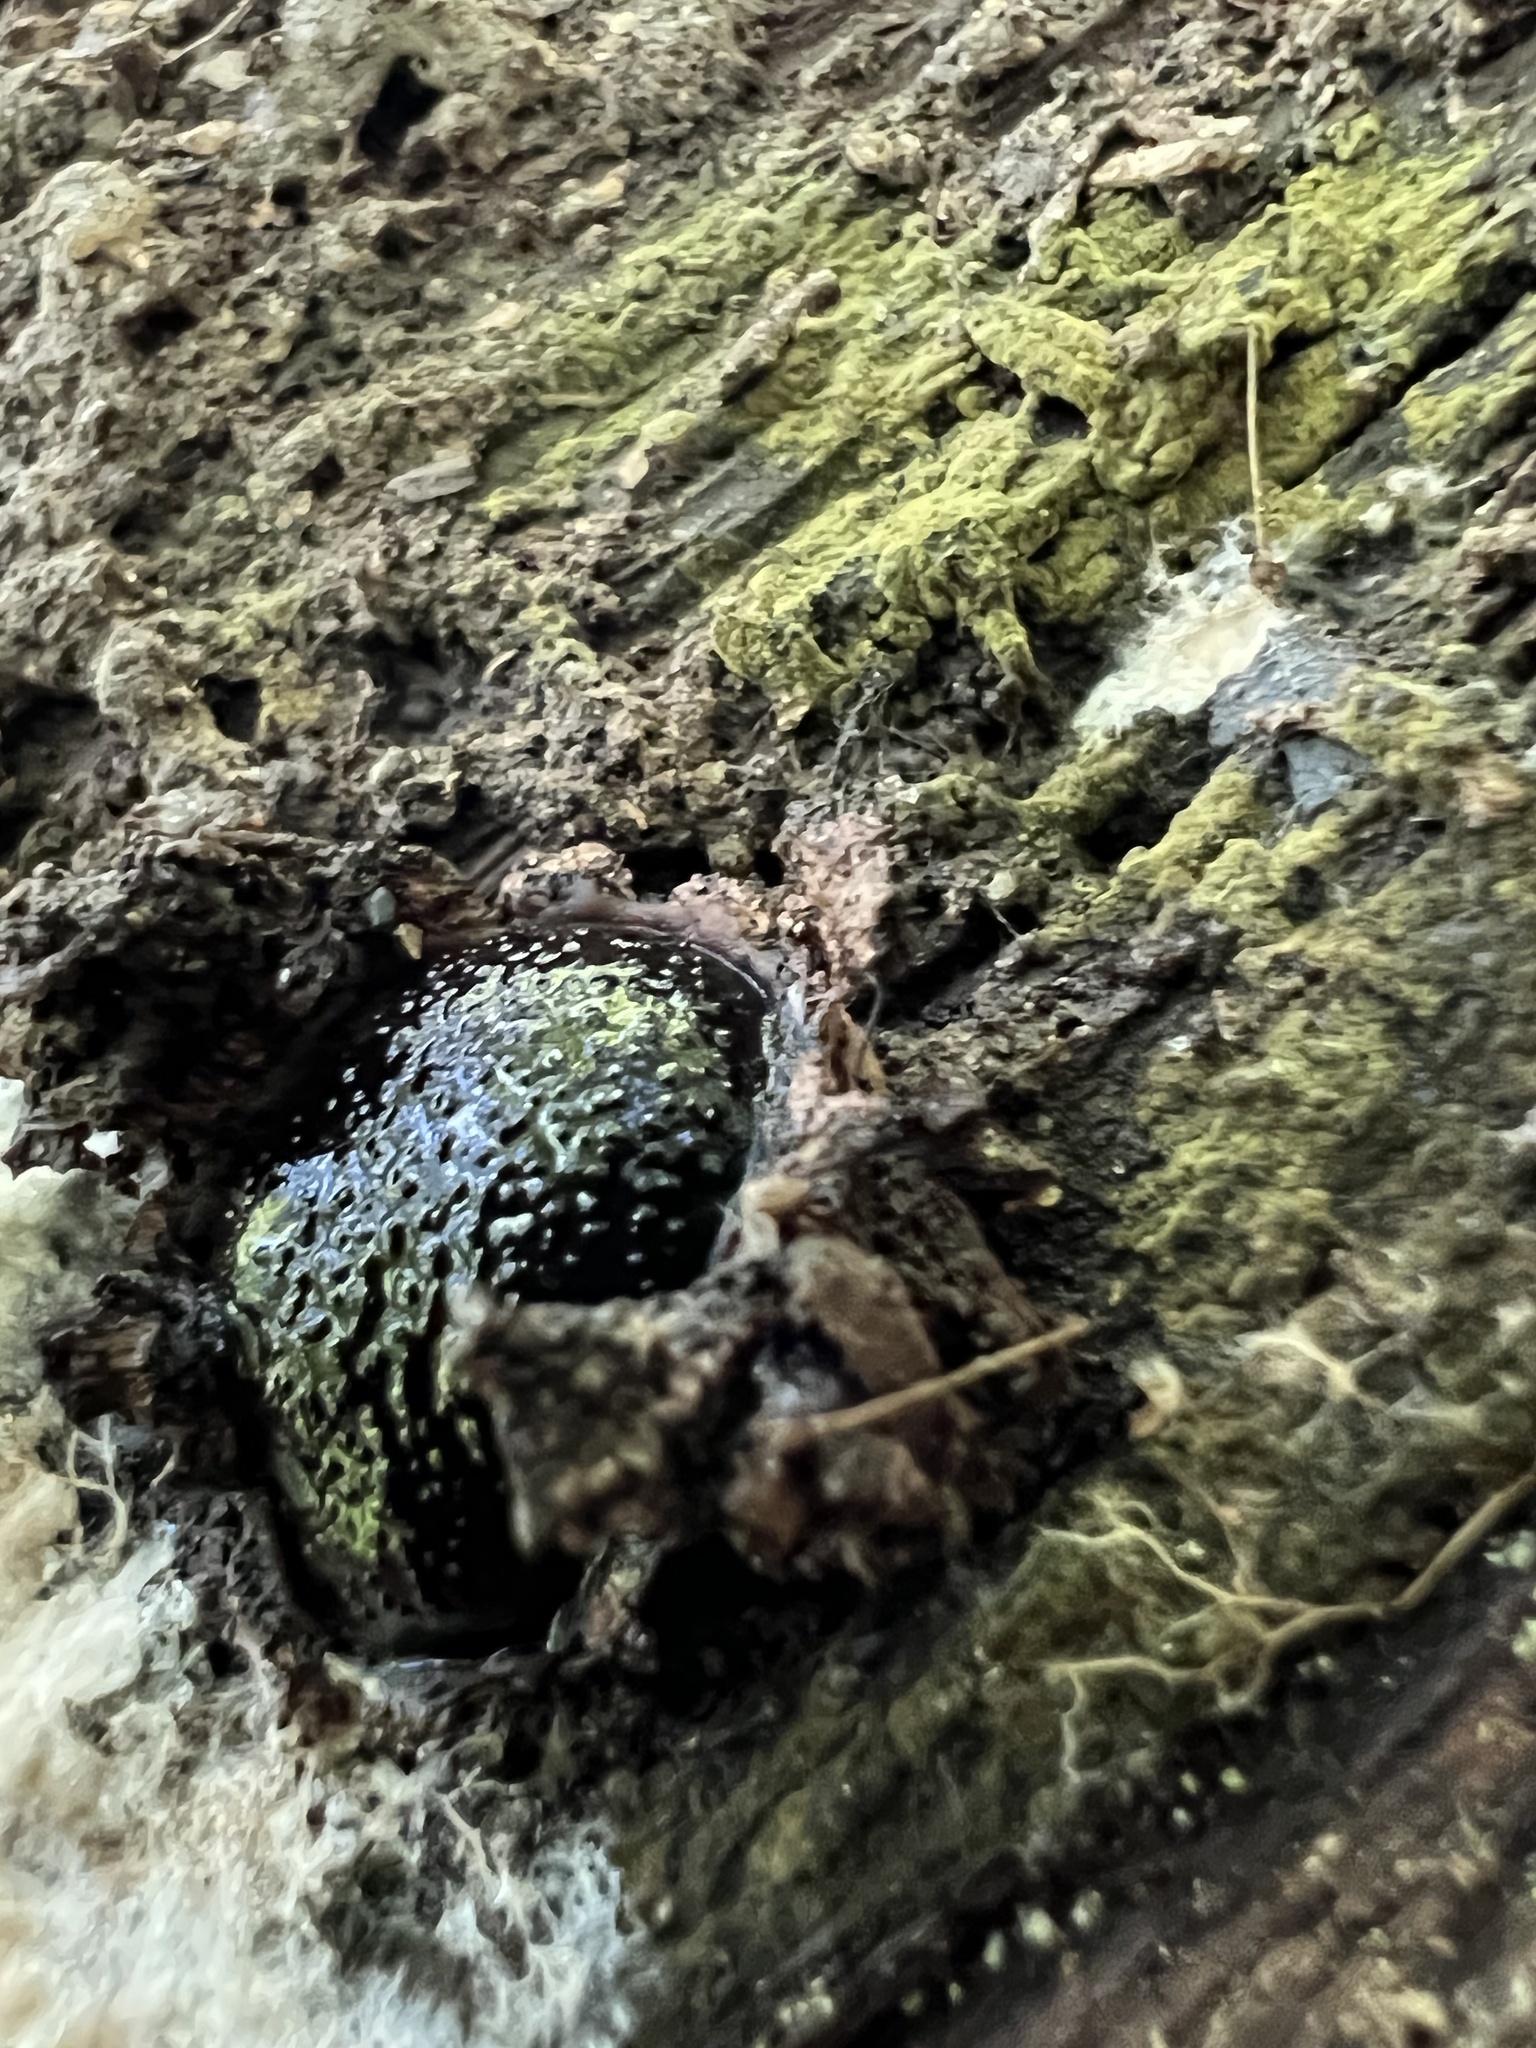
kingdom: Fungi
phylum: Ascomycota
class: Sordariomycetes
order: Boliniales
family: Boliniaceae
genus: Camarops
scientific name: Camarops petersii
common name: Dog's nose fungus
